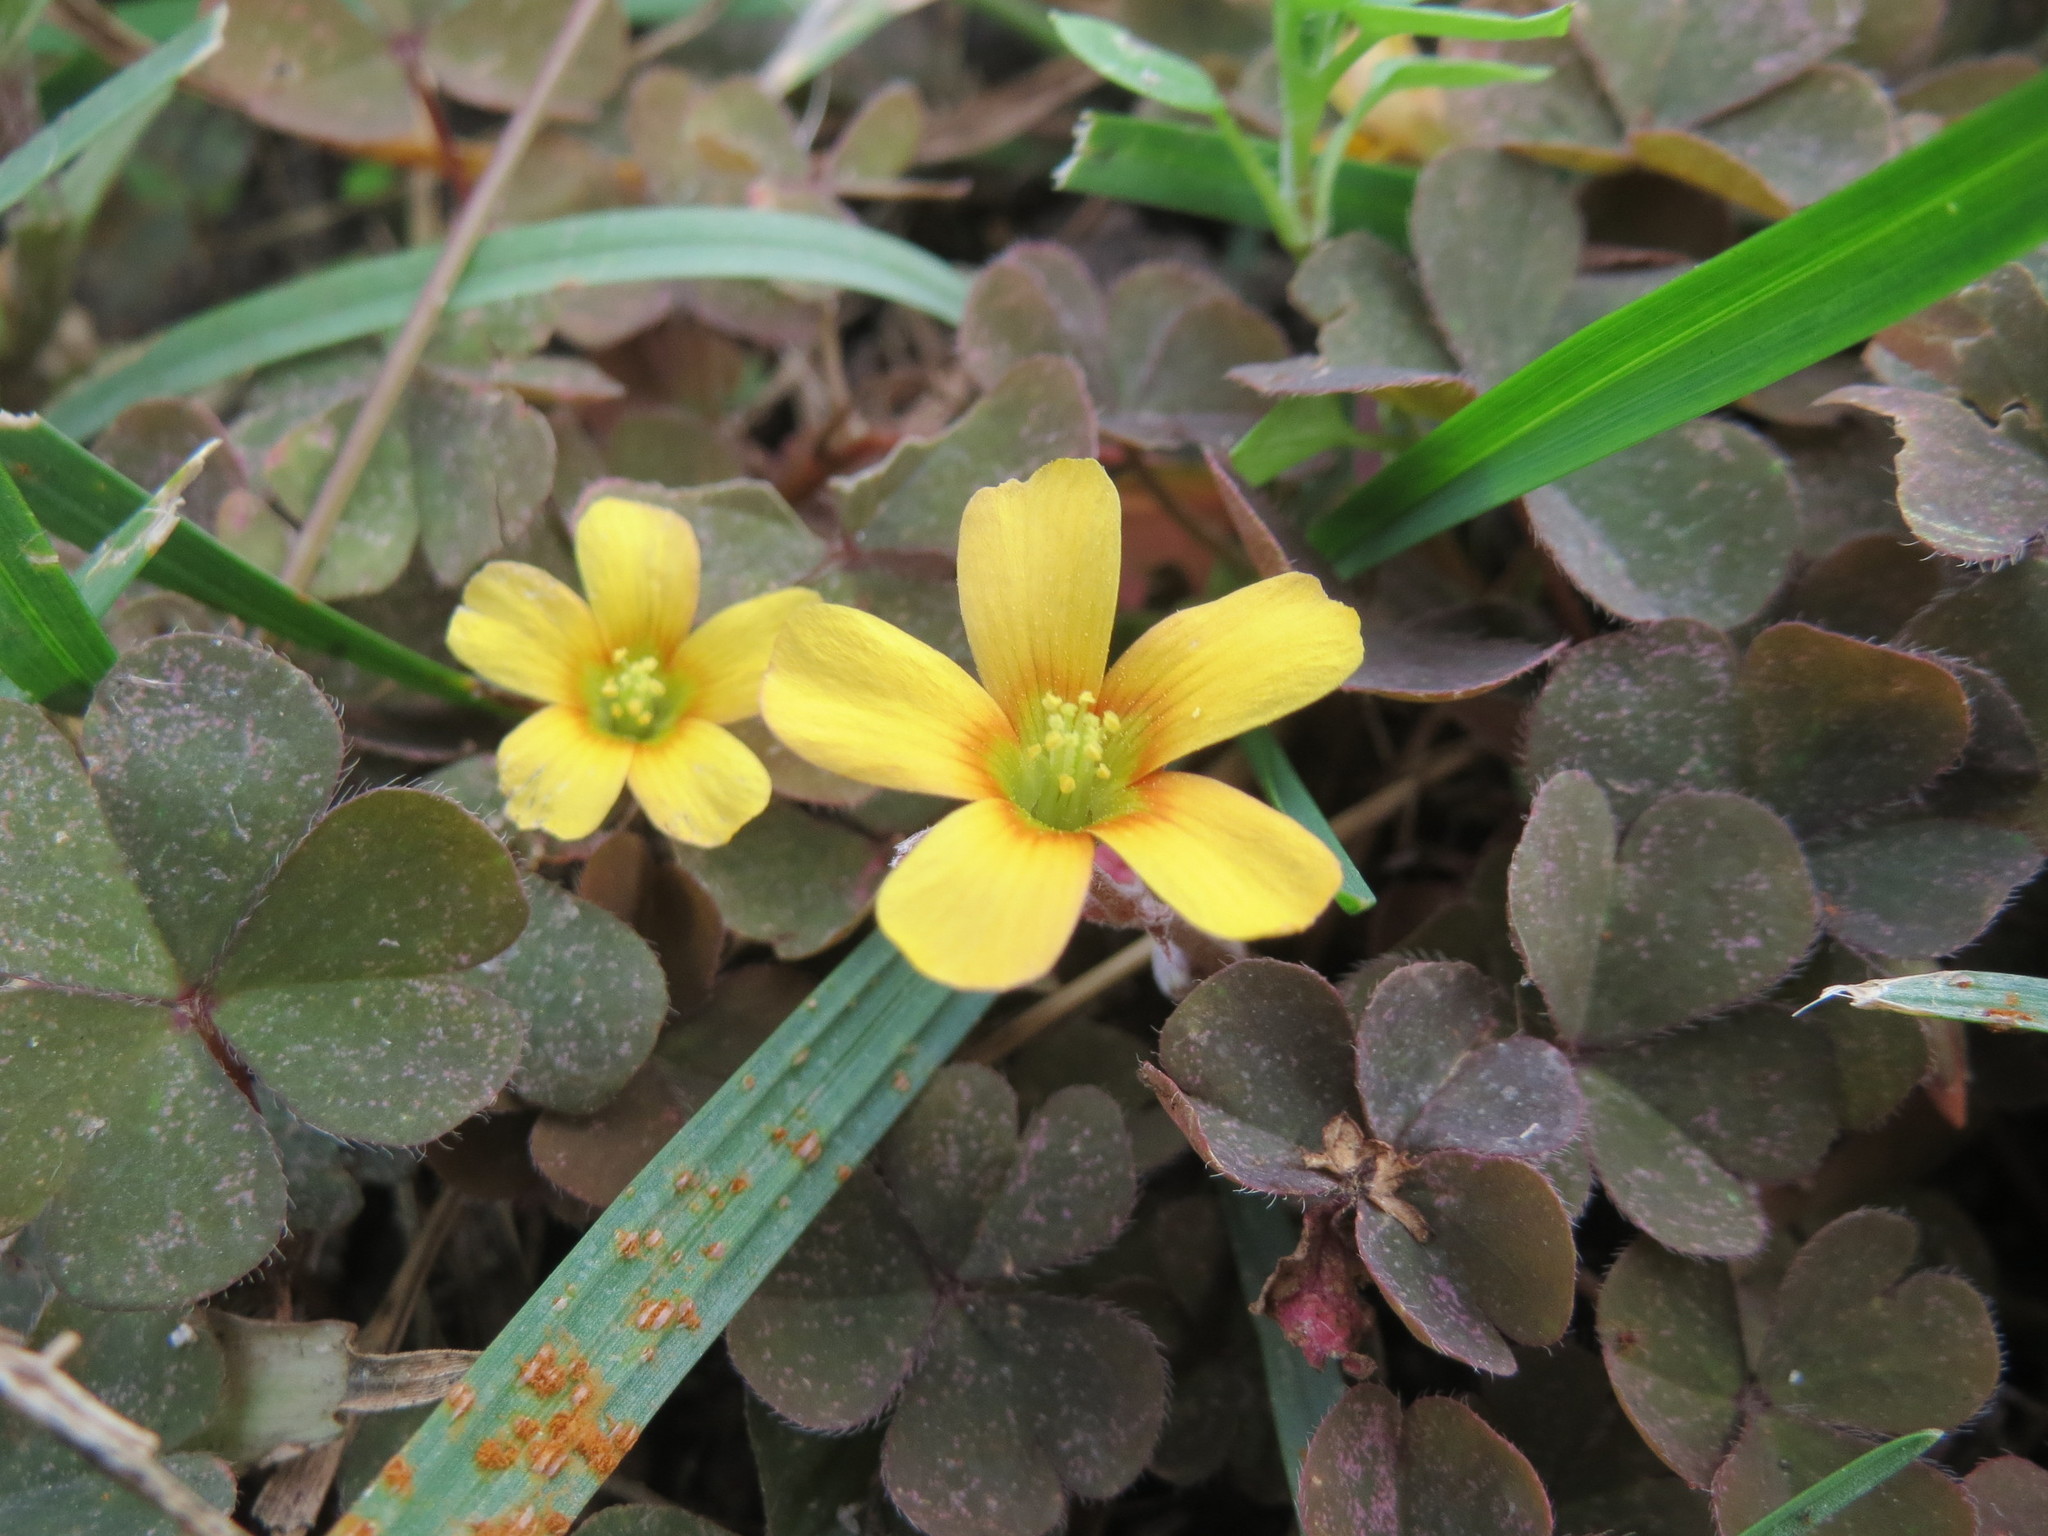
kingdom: Plantae
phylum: Tracheophyta
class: Magnoliopsida
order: Oxalidales
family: Oxalidaceae
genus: Oxalis
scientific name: Oxalis corniculata
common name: Procumbent yellow-sorrel
